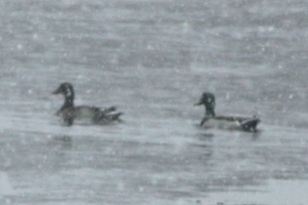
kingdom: Animalia
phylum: Chordata
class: Aves
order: Anseriformes
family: Anatidae
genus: Anas
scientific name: Anas platyrhynchos
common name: Mallard
